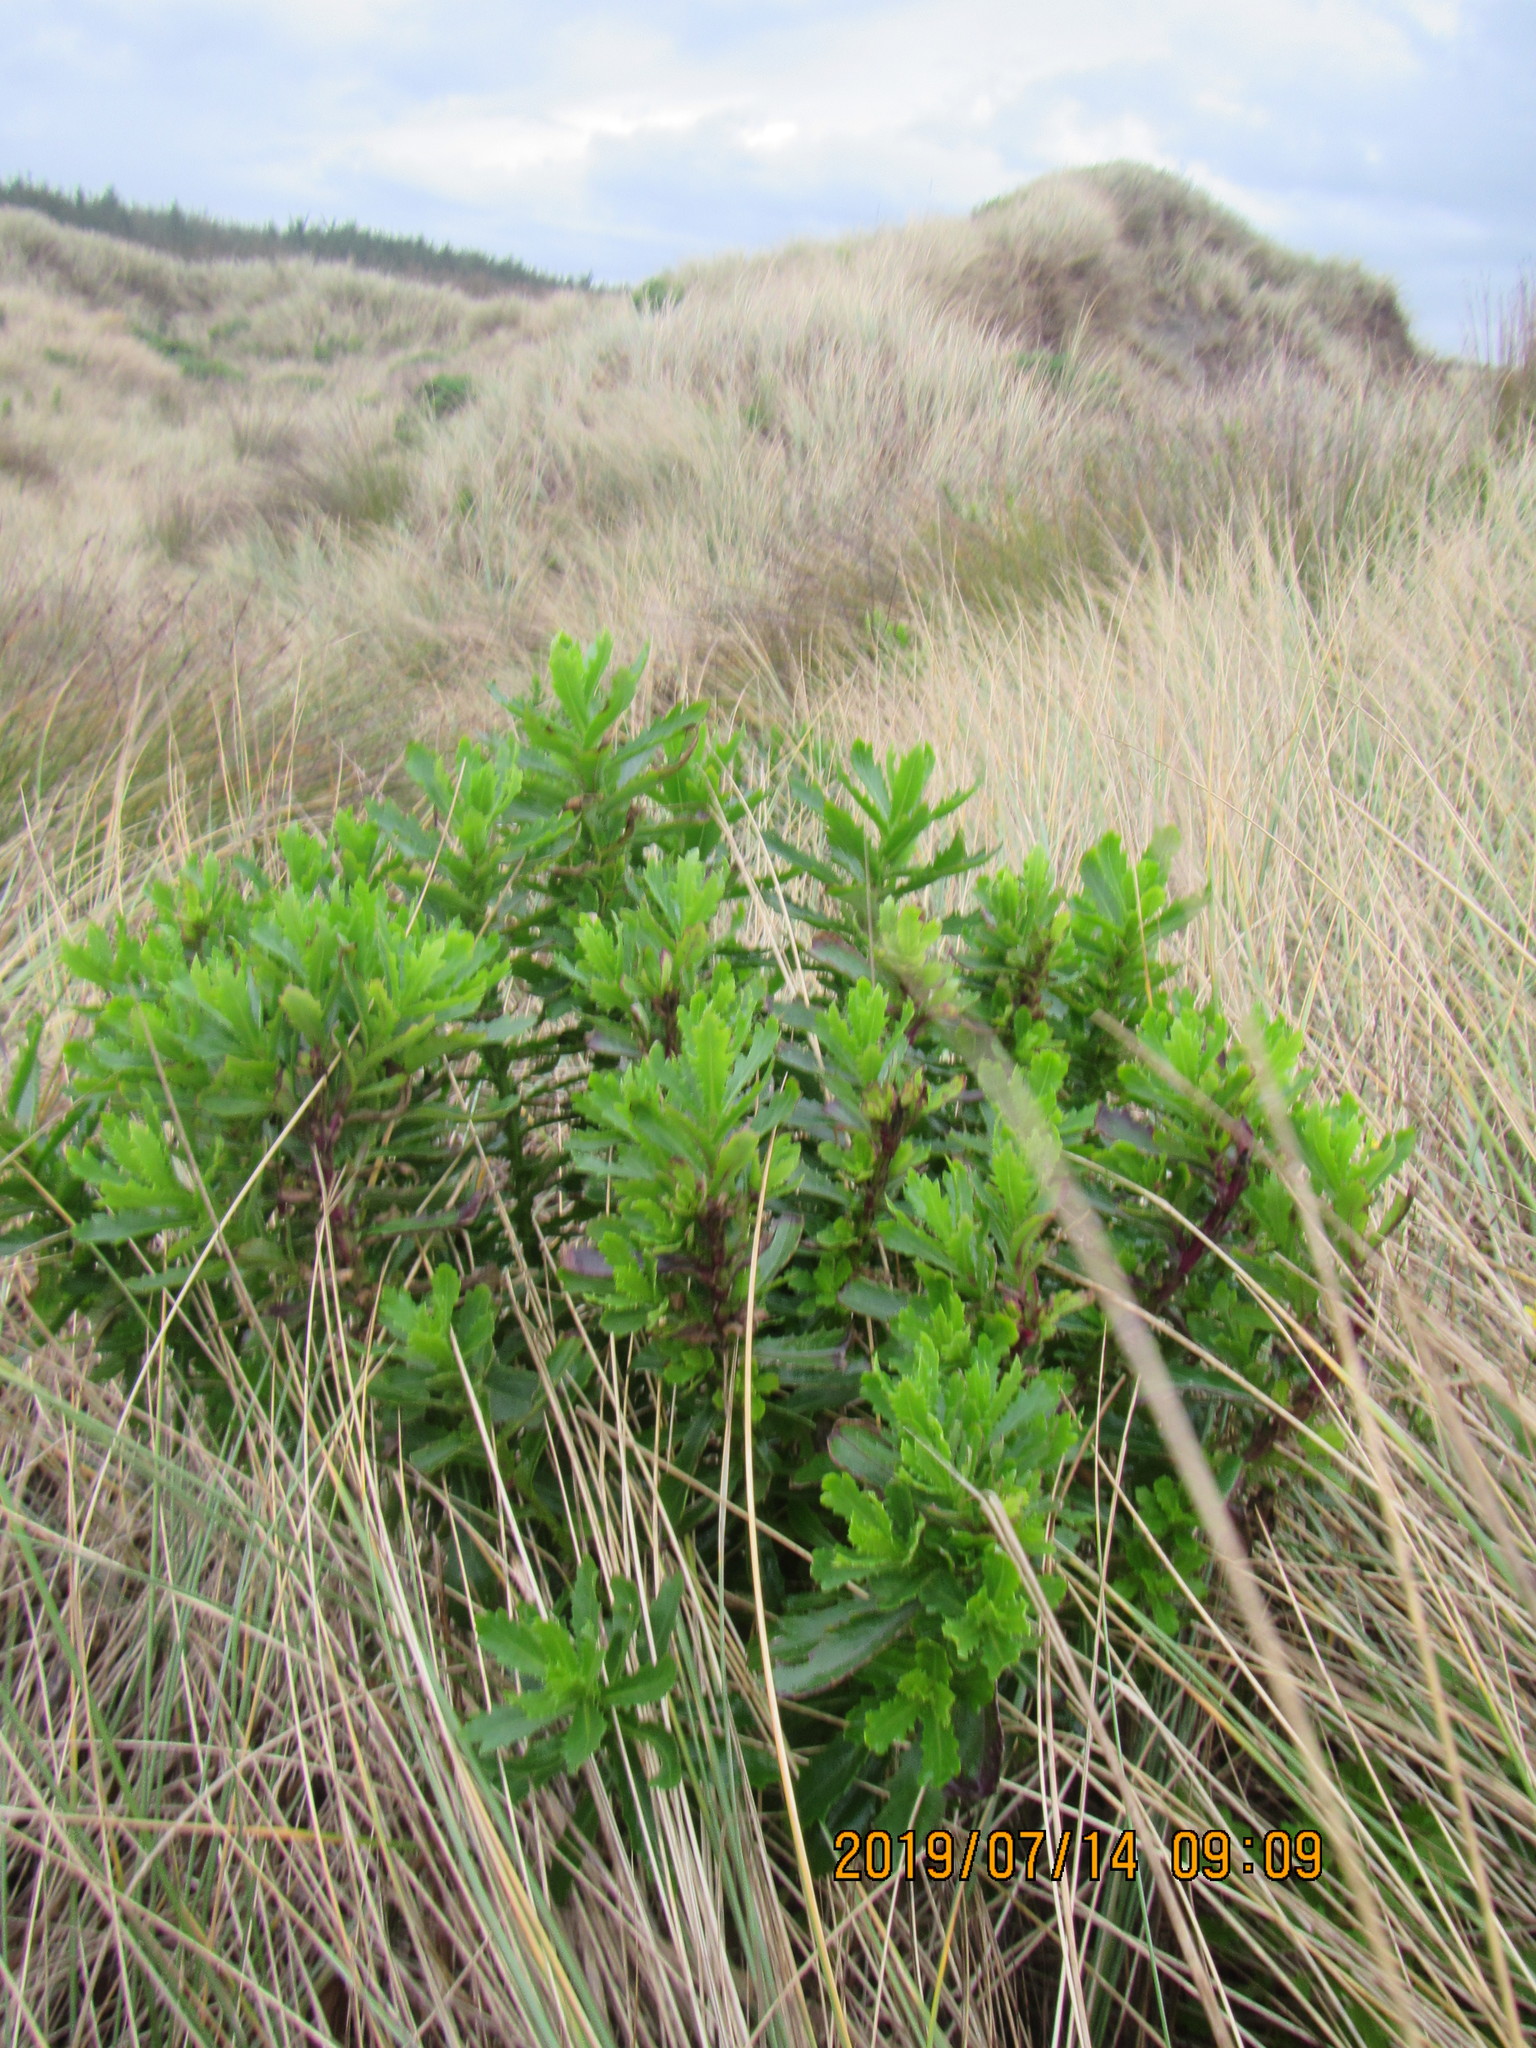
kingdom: Plantae
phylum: Tracheophyta
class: Magnoliopsida
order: Asterales
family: Asteraceae
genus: Senecio
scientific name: Senecio glastifolius
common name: Woad-leaved ragwort
